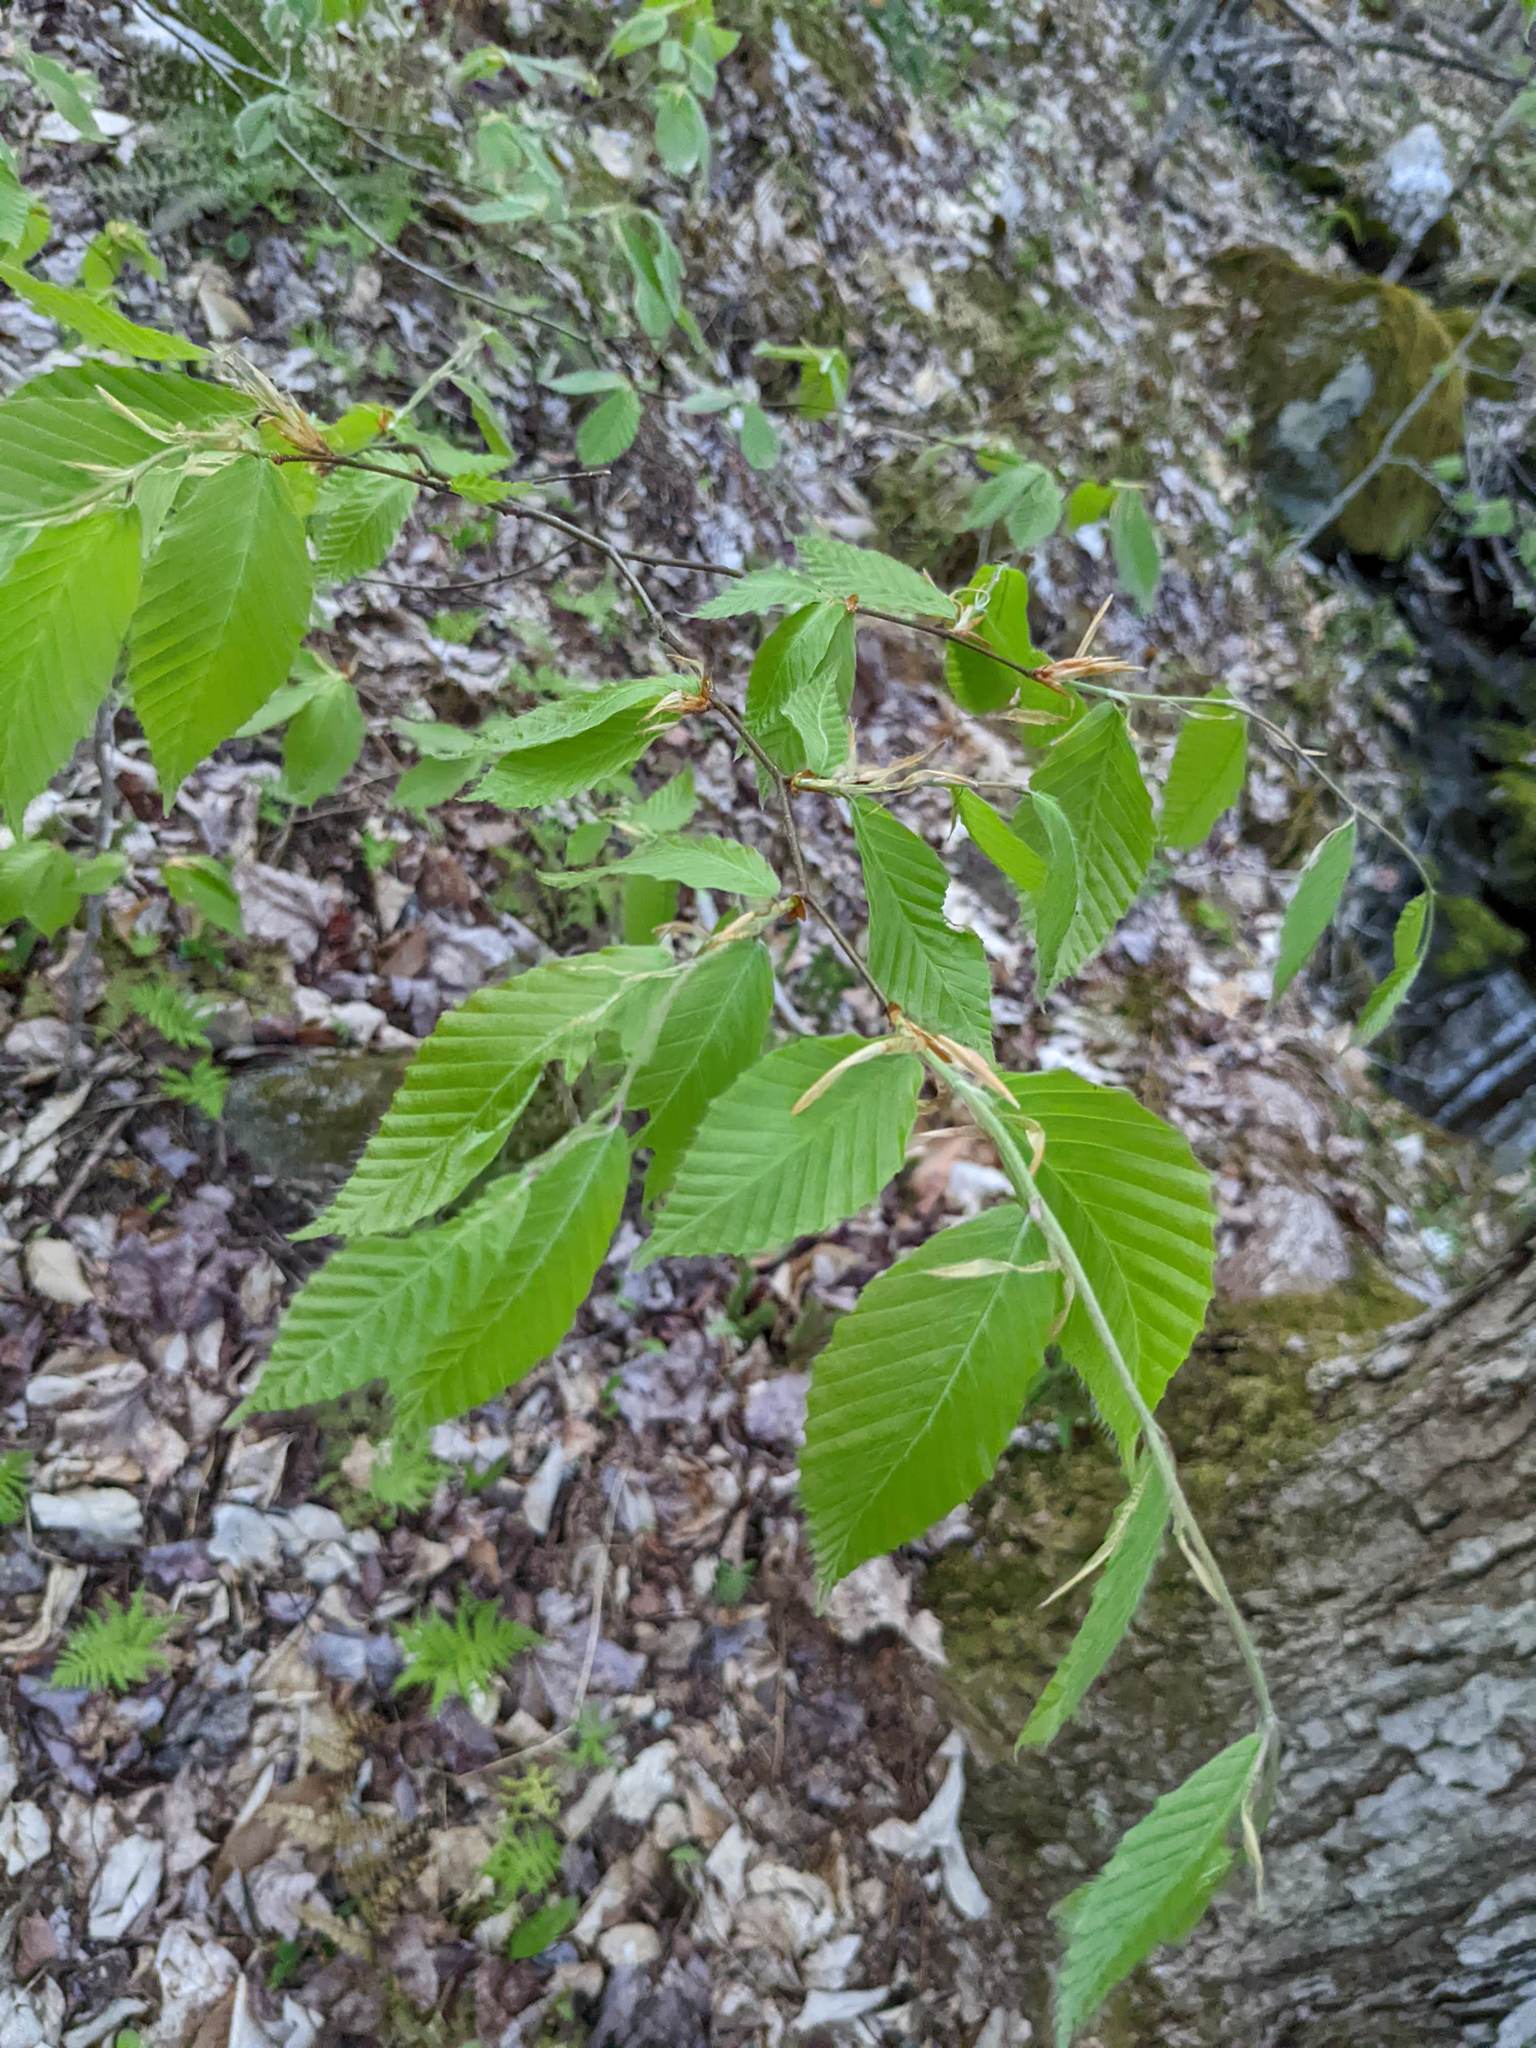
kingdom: Plantae
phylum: Tracheophyta
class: Magnoliopsida
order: Fagales
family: Fagaceae
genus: Fagus
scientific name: Fagus grandifolia
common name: American beech
